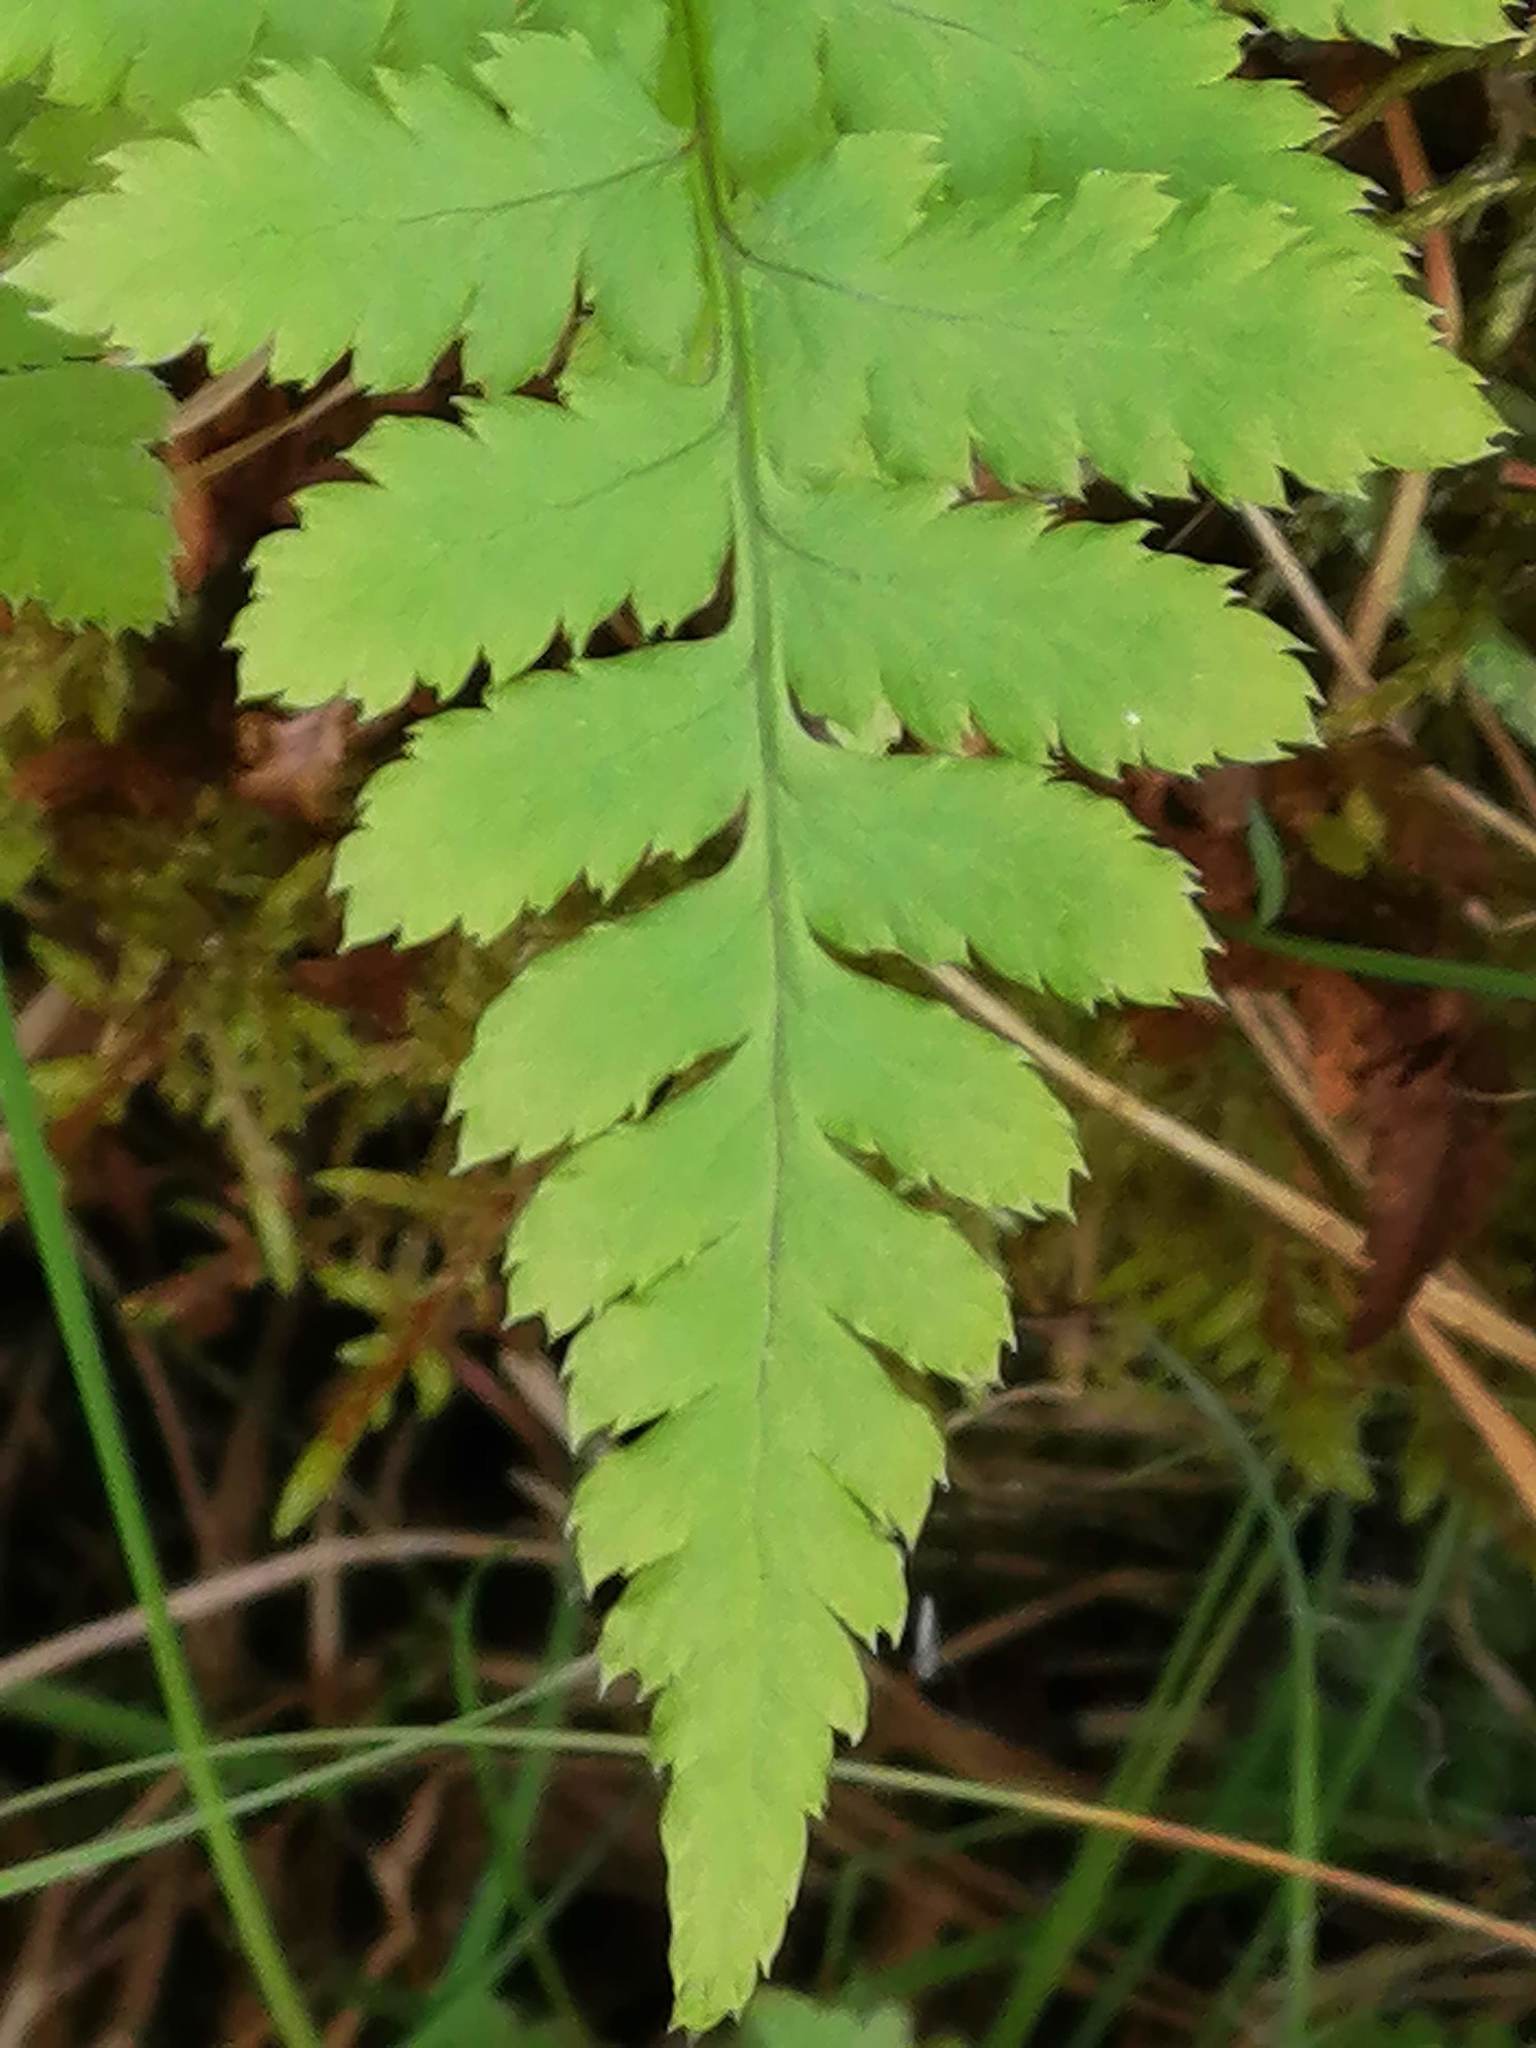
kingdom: Plantae
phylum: Tracheophyta
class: Polypodiopsida
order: Polypodiales
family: Dryopteridaceae
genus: Dryopteris
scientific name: Dryopteris carthusiana
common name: Narrow buckler-fern
